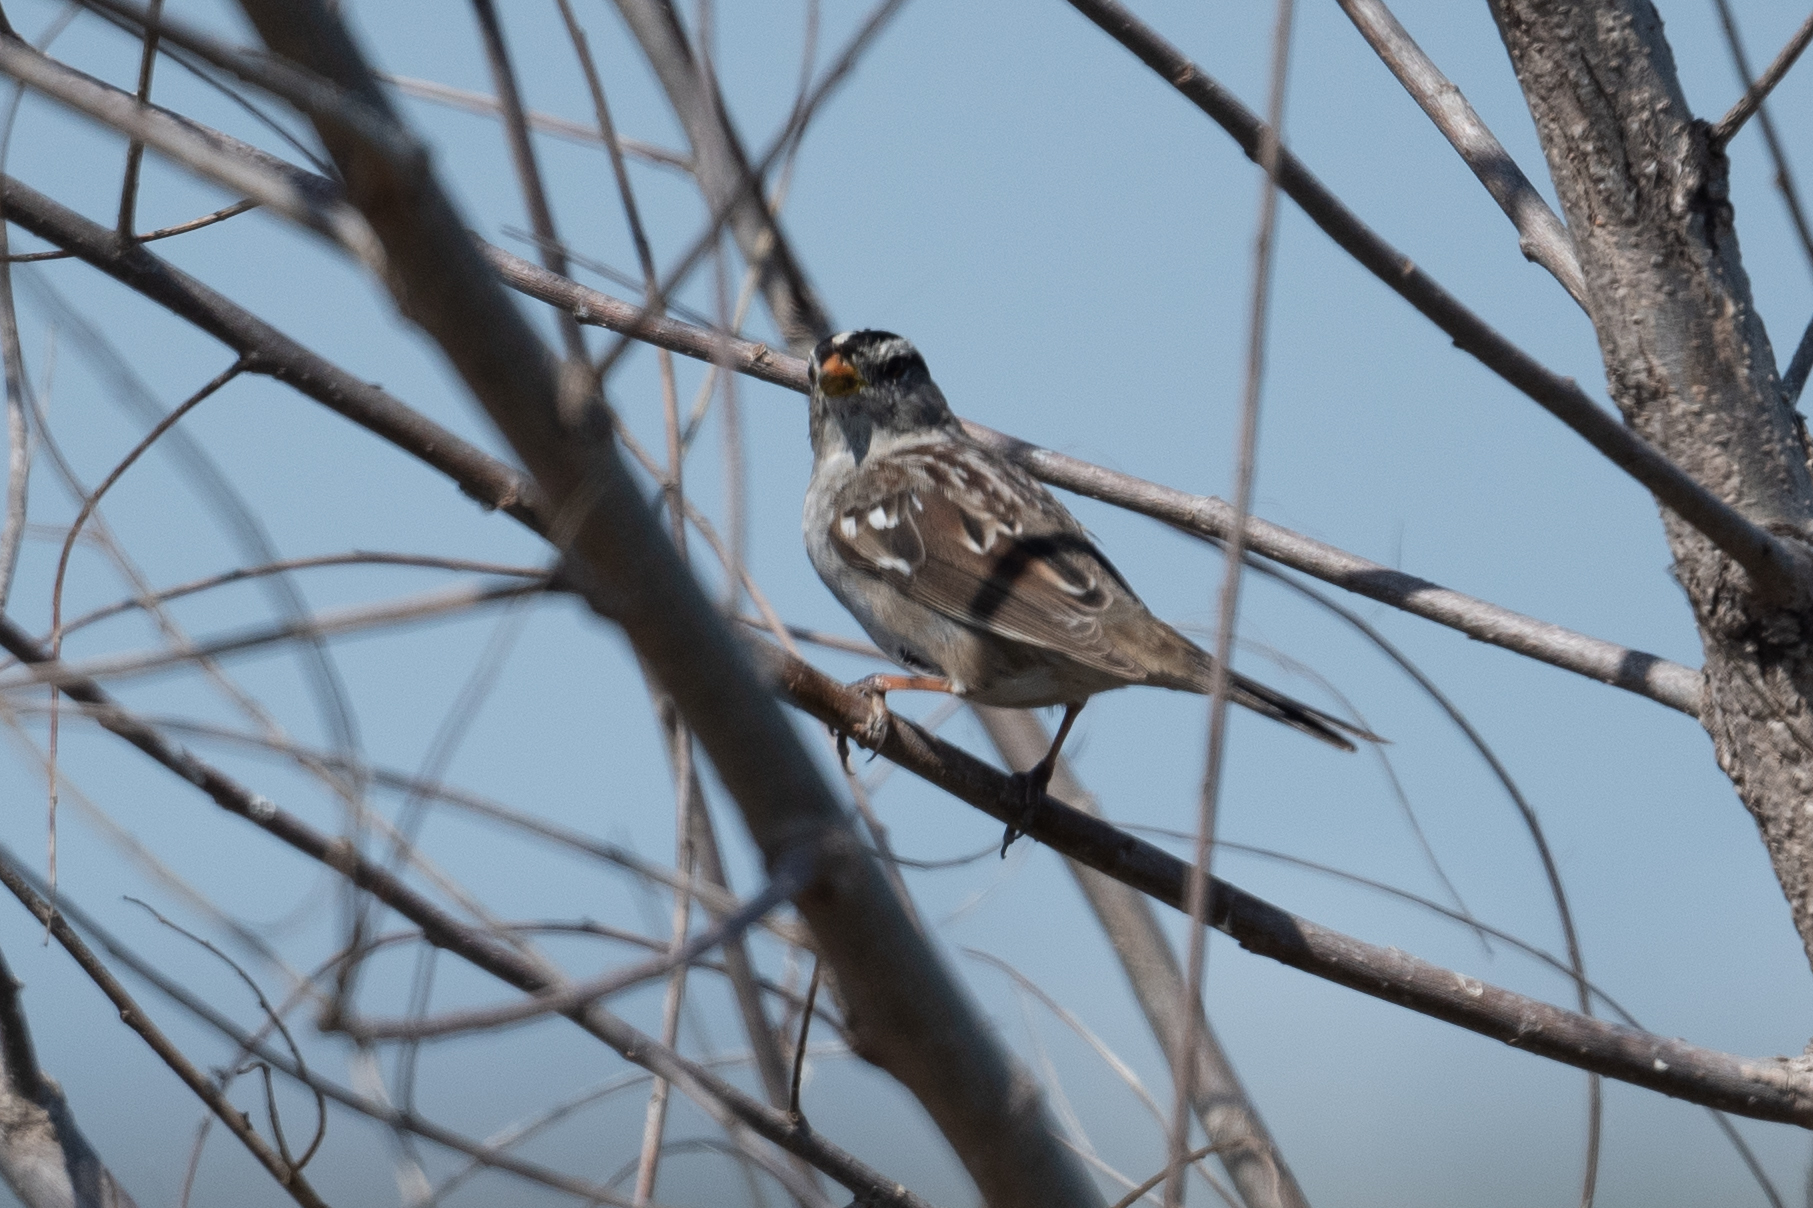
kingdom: Animalia
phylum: Chordata
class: Aves
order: Passeriformes
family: Passerellidae
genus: Zonotrichia
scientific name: Zonotrichia leucophrys
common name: White-crowned sparrow
